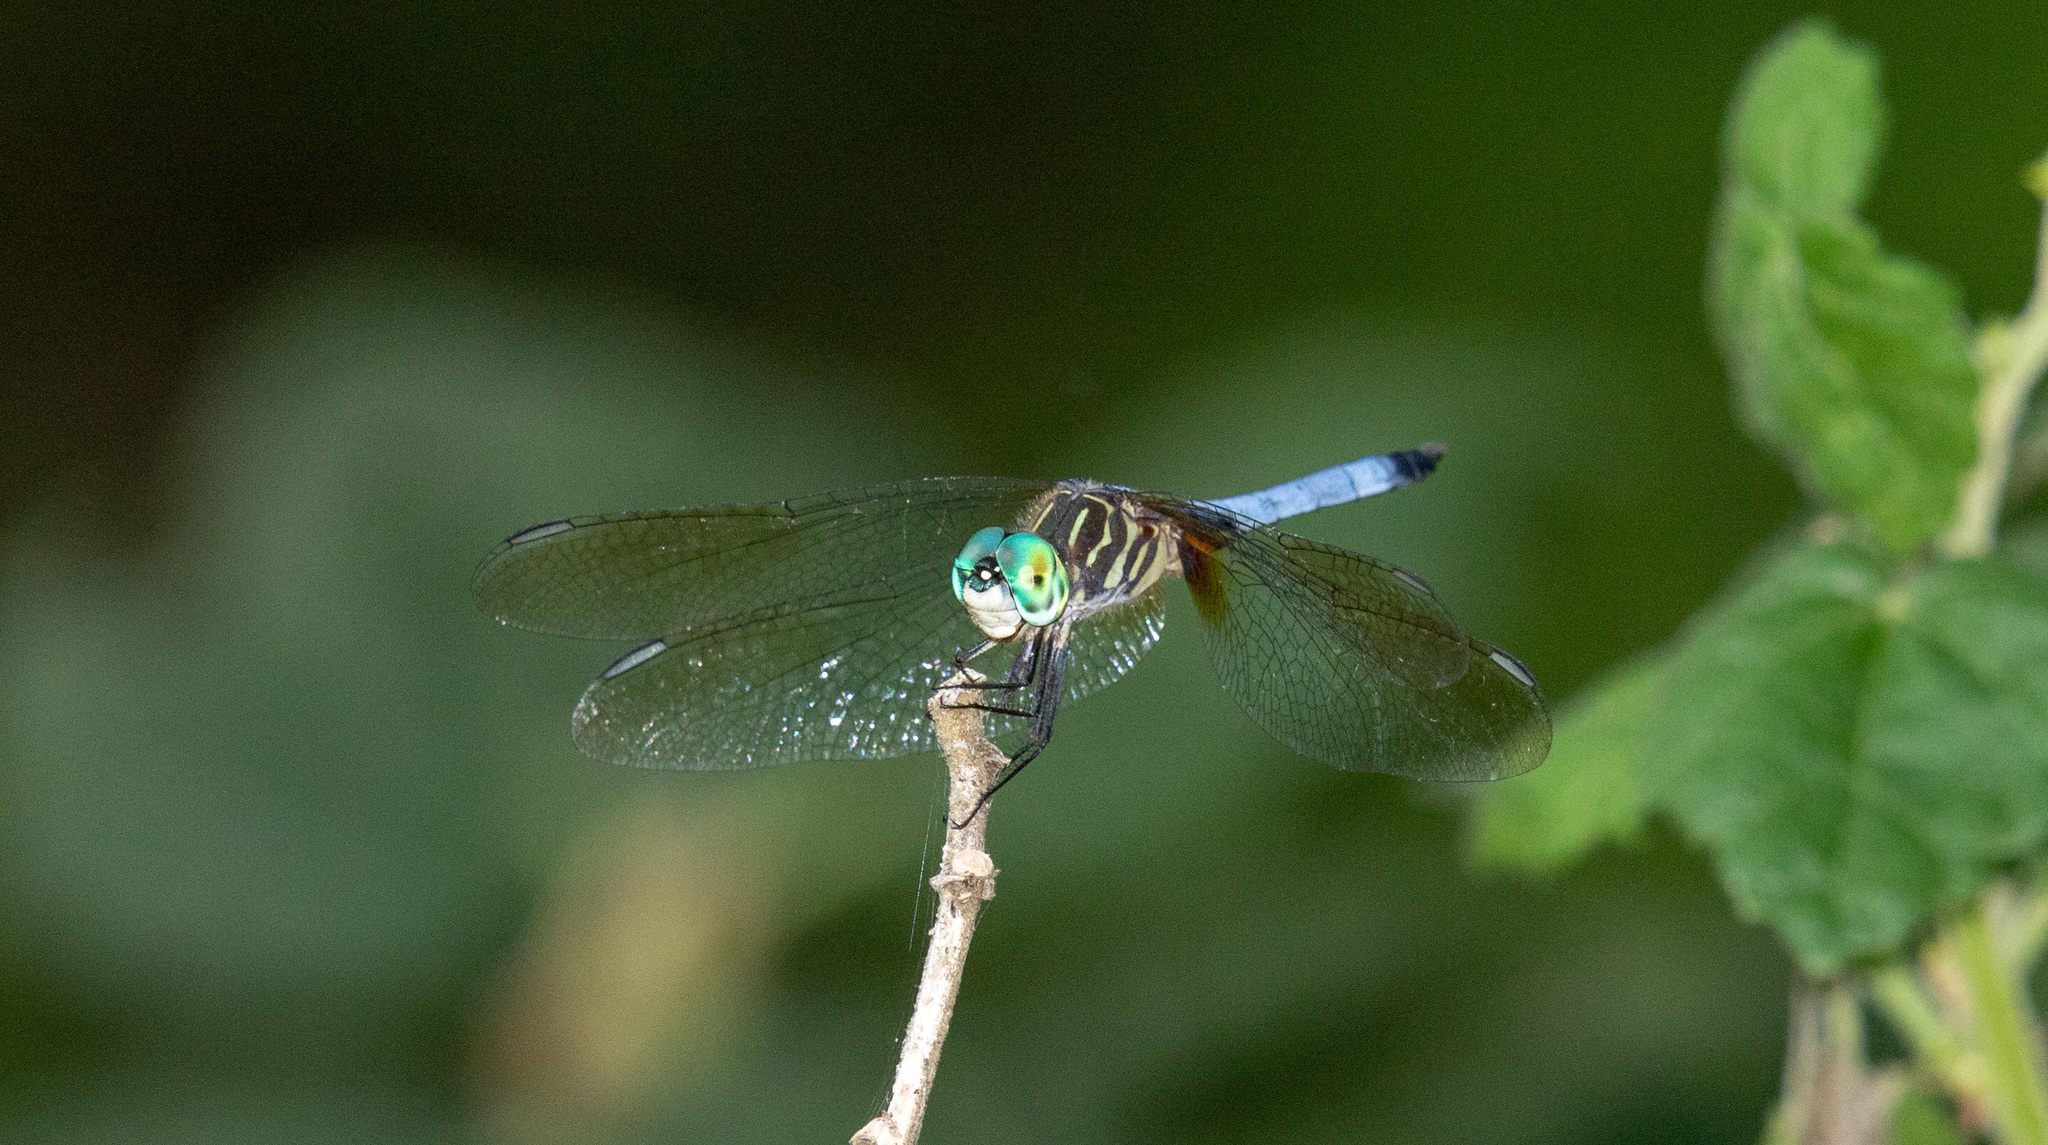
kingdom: Animalia
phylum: Arthropoda
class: Insecta
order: Odonata
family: Libellulidae
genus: Pachydiplax
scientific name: Pachydiplax longipennis
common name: Blue dasher
